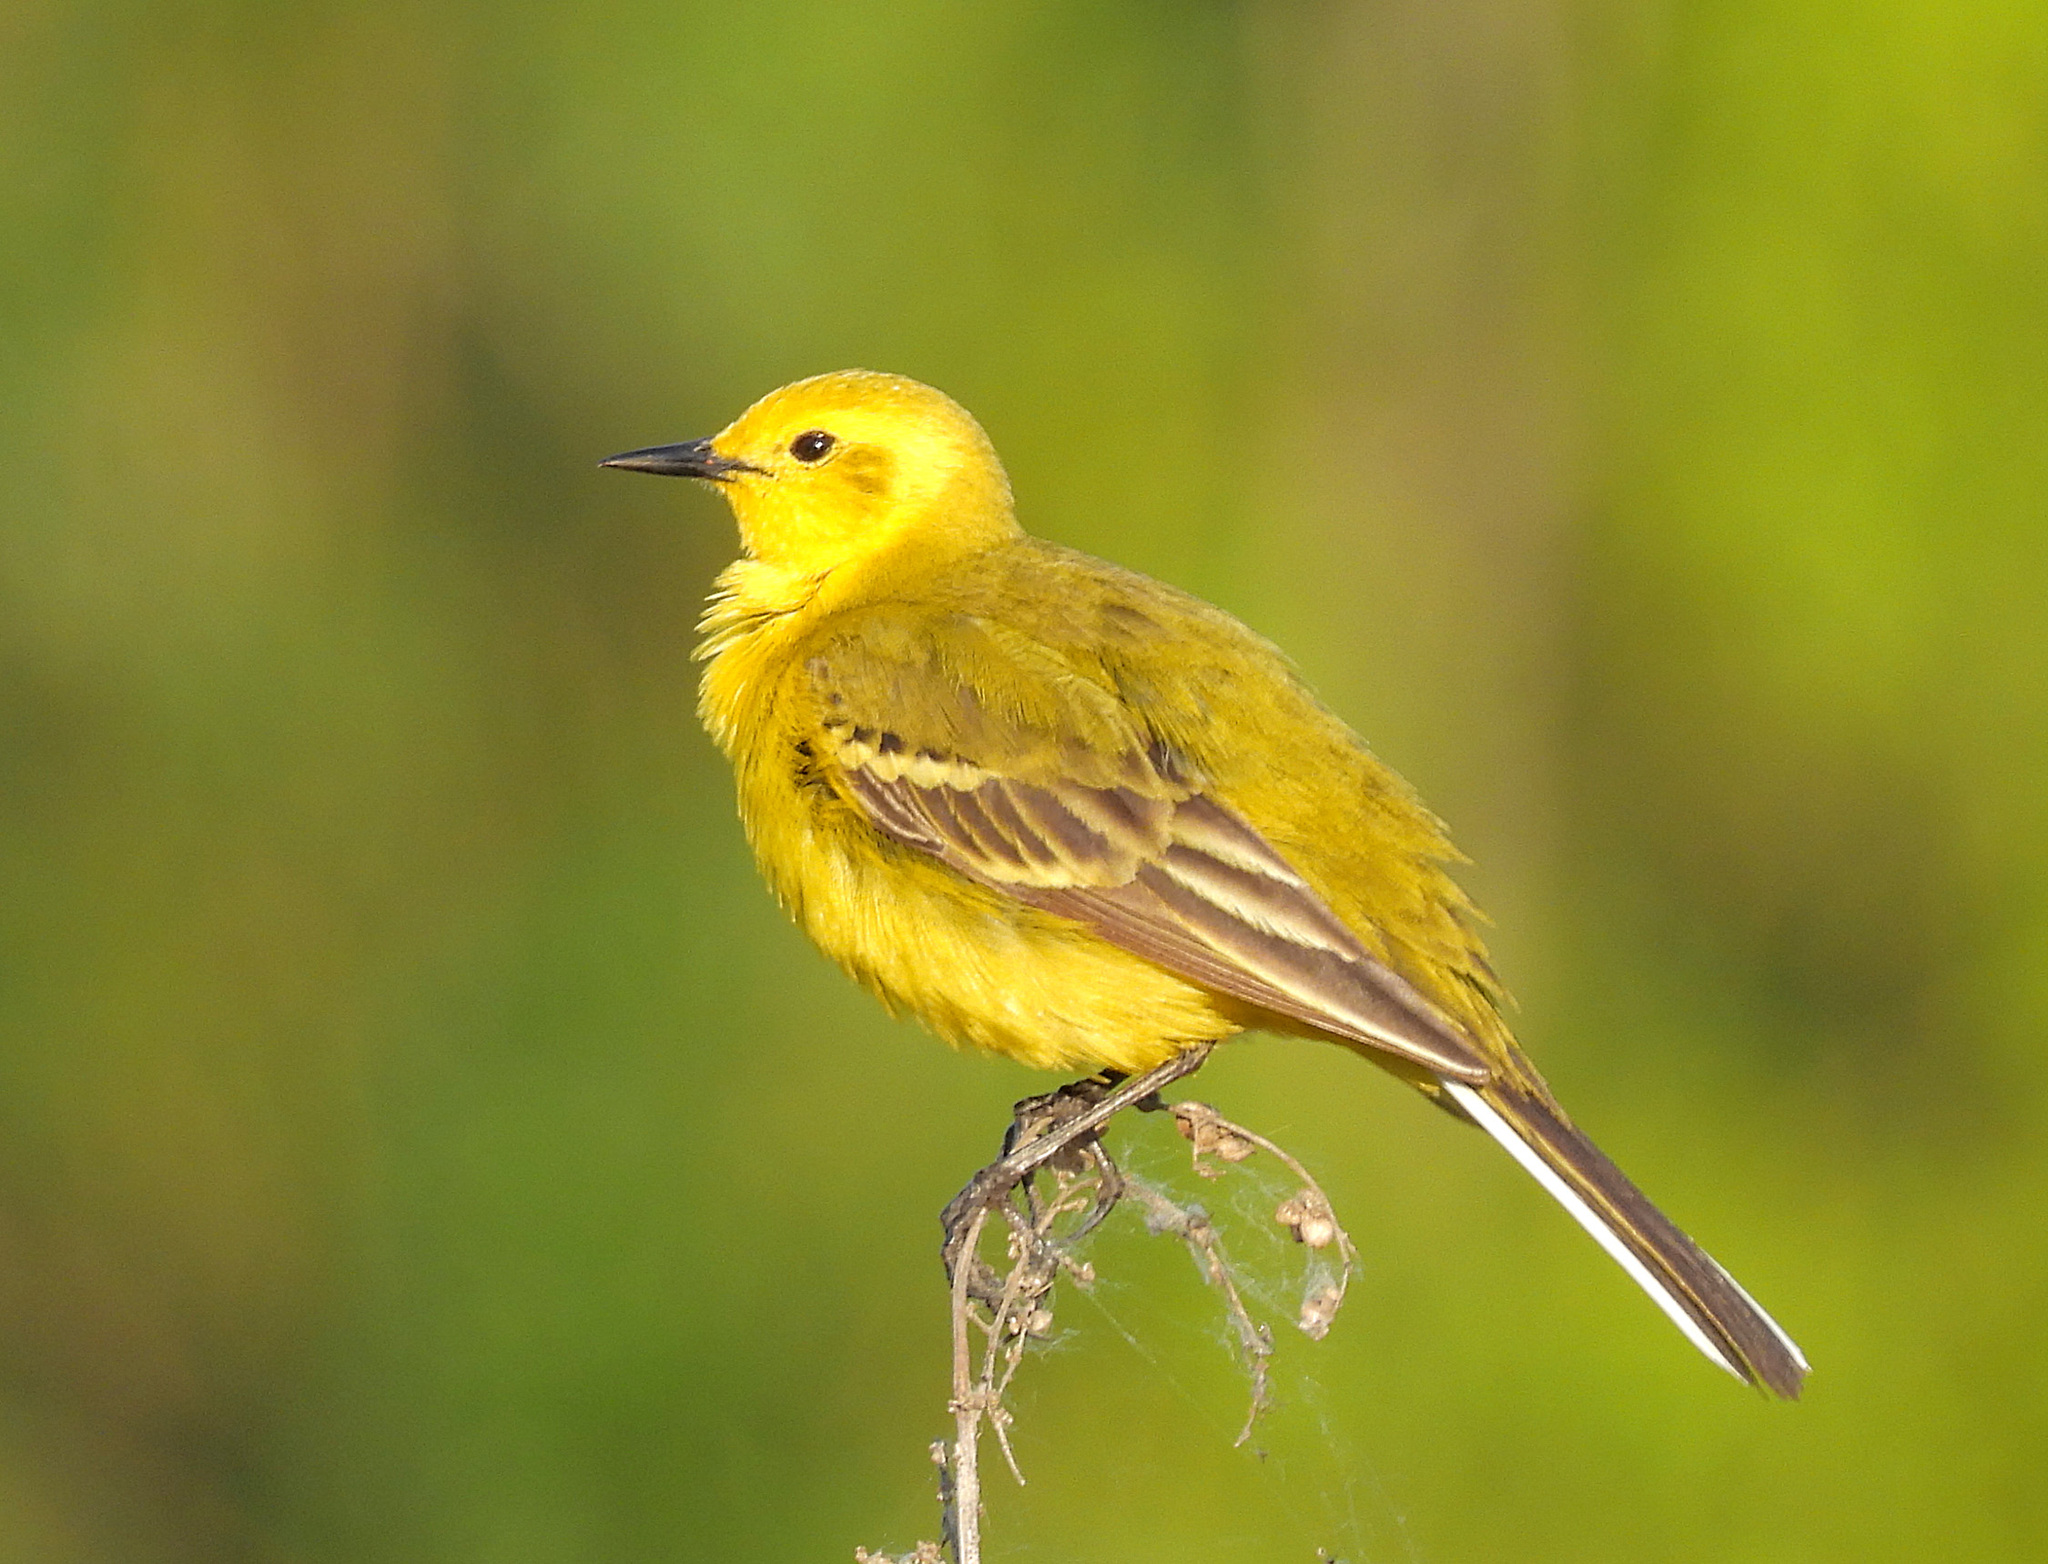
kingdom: Animalia
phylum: Chordata
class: Aves
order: Passeriformes
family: Motacillidae
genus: Motacilla
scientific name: Motacilla flava
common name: Western yellow wagtail
